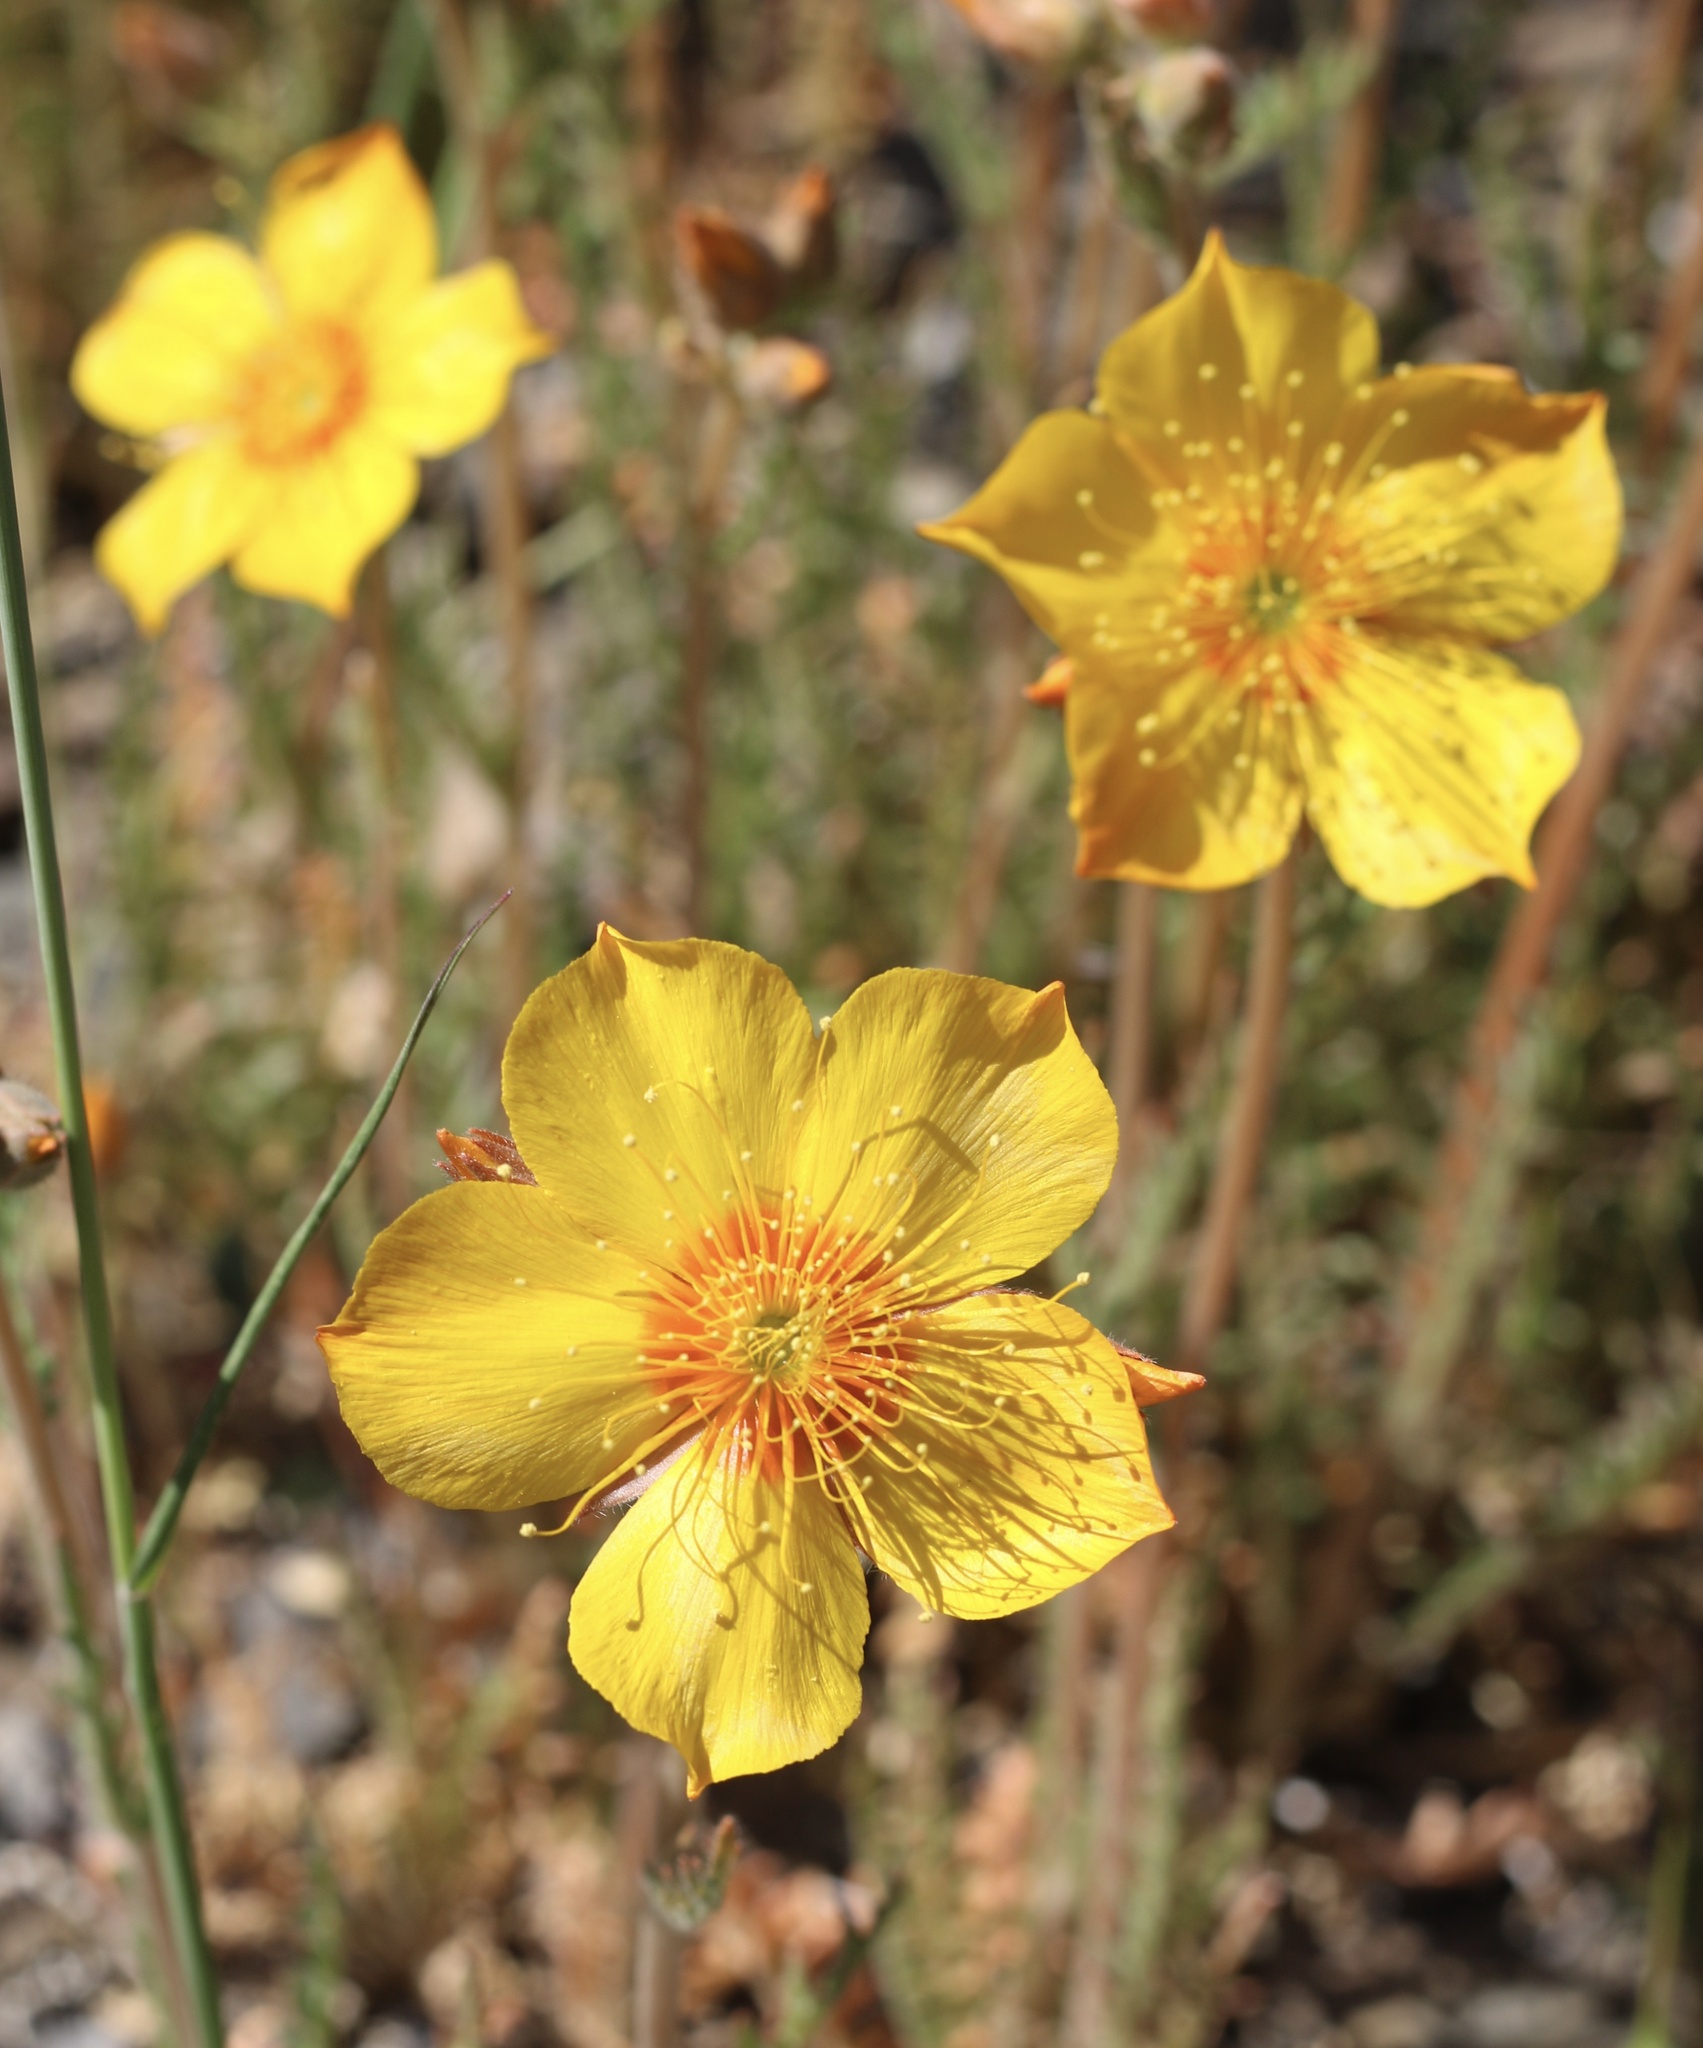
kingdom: Plantae
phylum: Tracheophyta
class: Magnoliopsida
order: Cornales
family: Loasaceae
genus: Mentzelia
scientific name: Mentzelia lindleyi
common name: Golden bartonia
